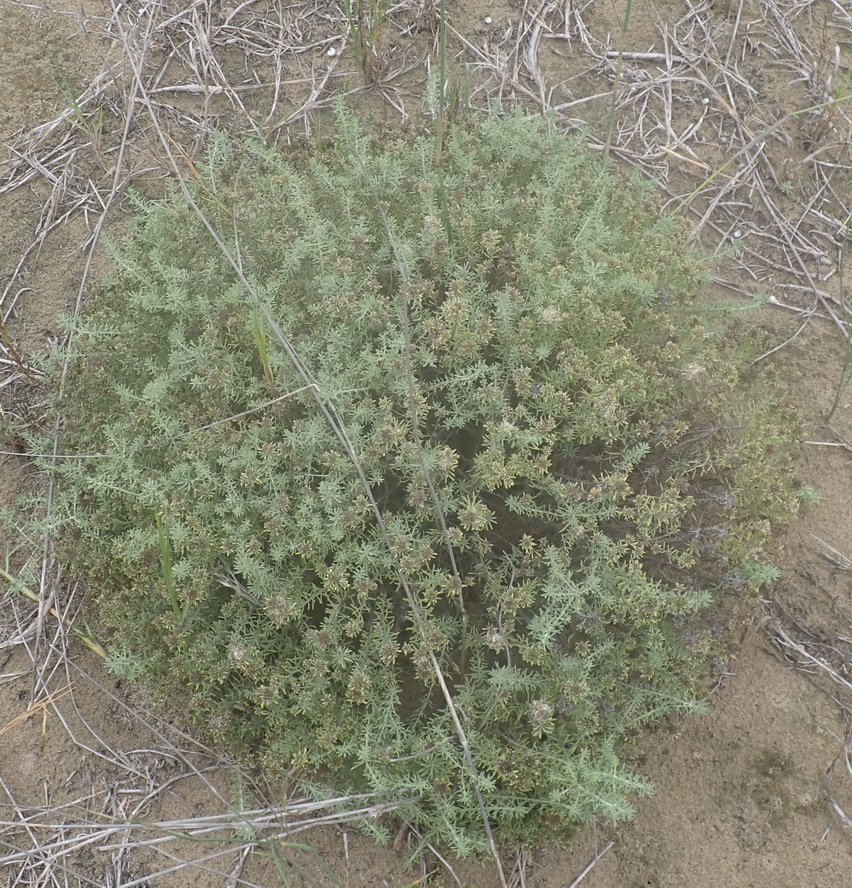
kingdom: Plantae
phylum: Tracheophyta
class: Magnoliopsida
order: Asterales
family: Asteraceae
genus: Helichrysum
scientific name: Helichrysum asperum
